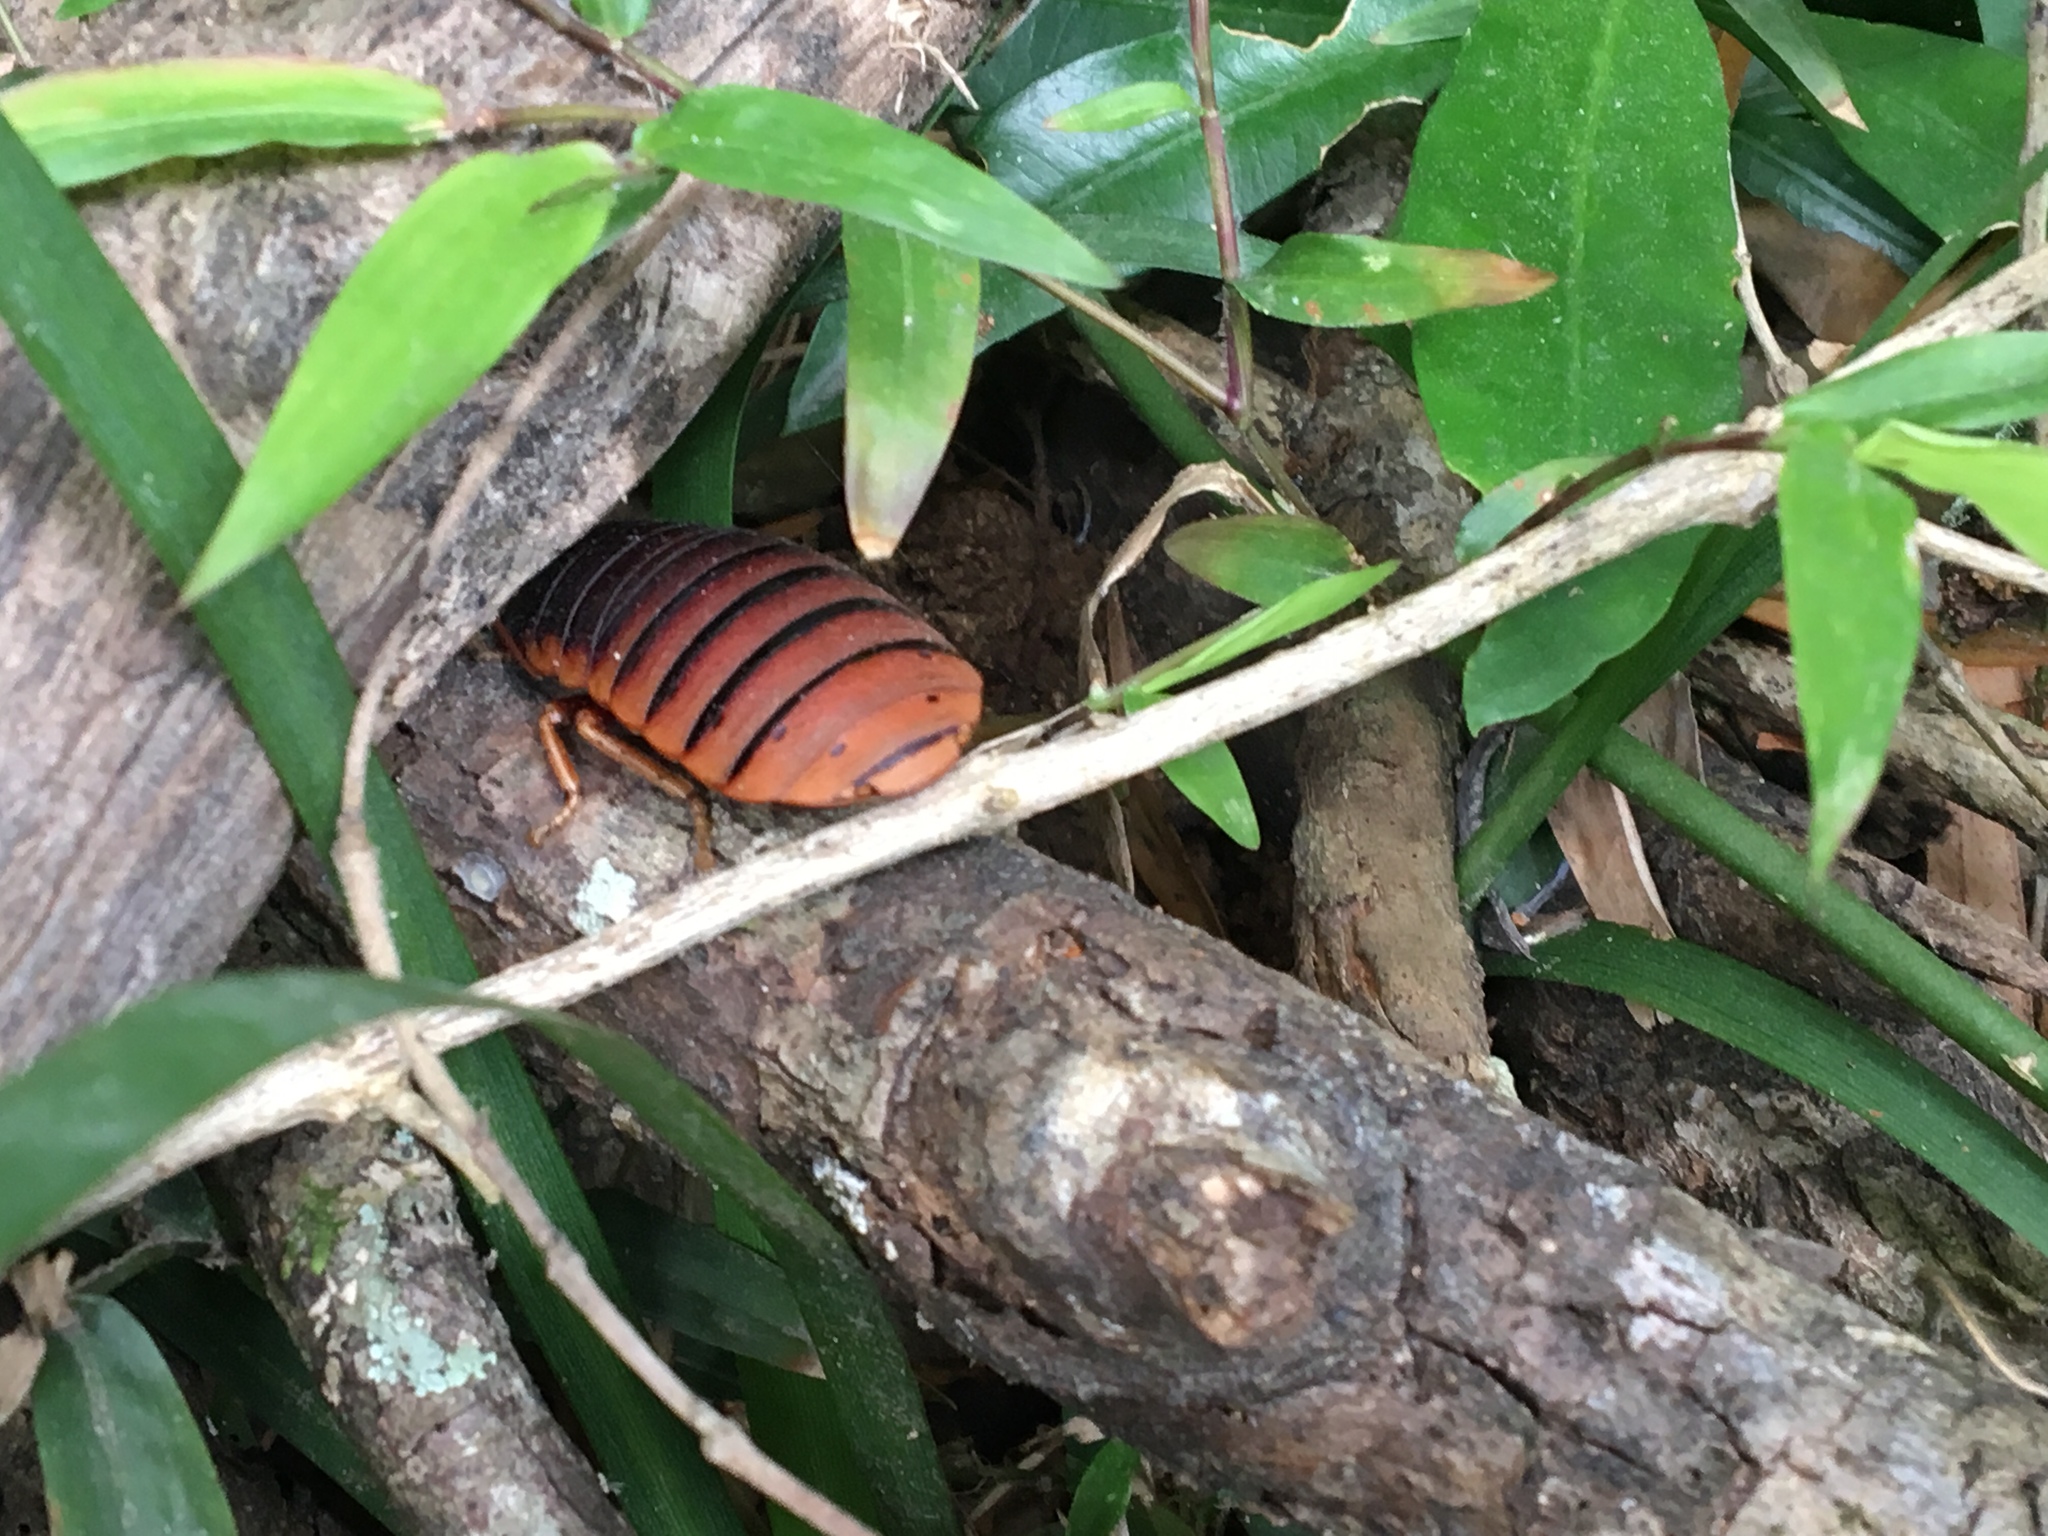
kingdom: Animalia
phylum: Arthropoda
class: Insecta
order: Blattodea
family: Blaberidae
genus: Aptera
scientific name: Aptera fusca
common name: Cape mountain cockroach
